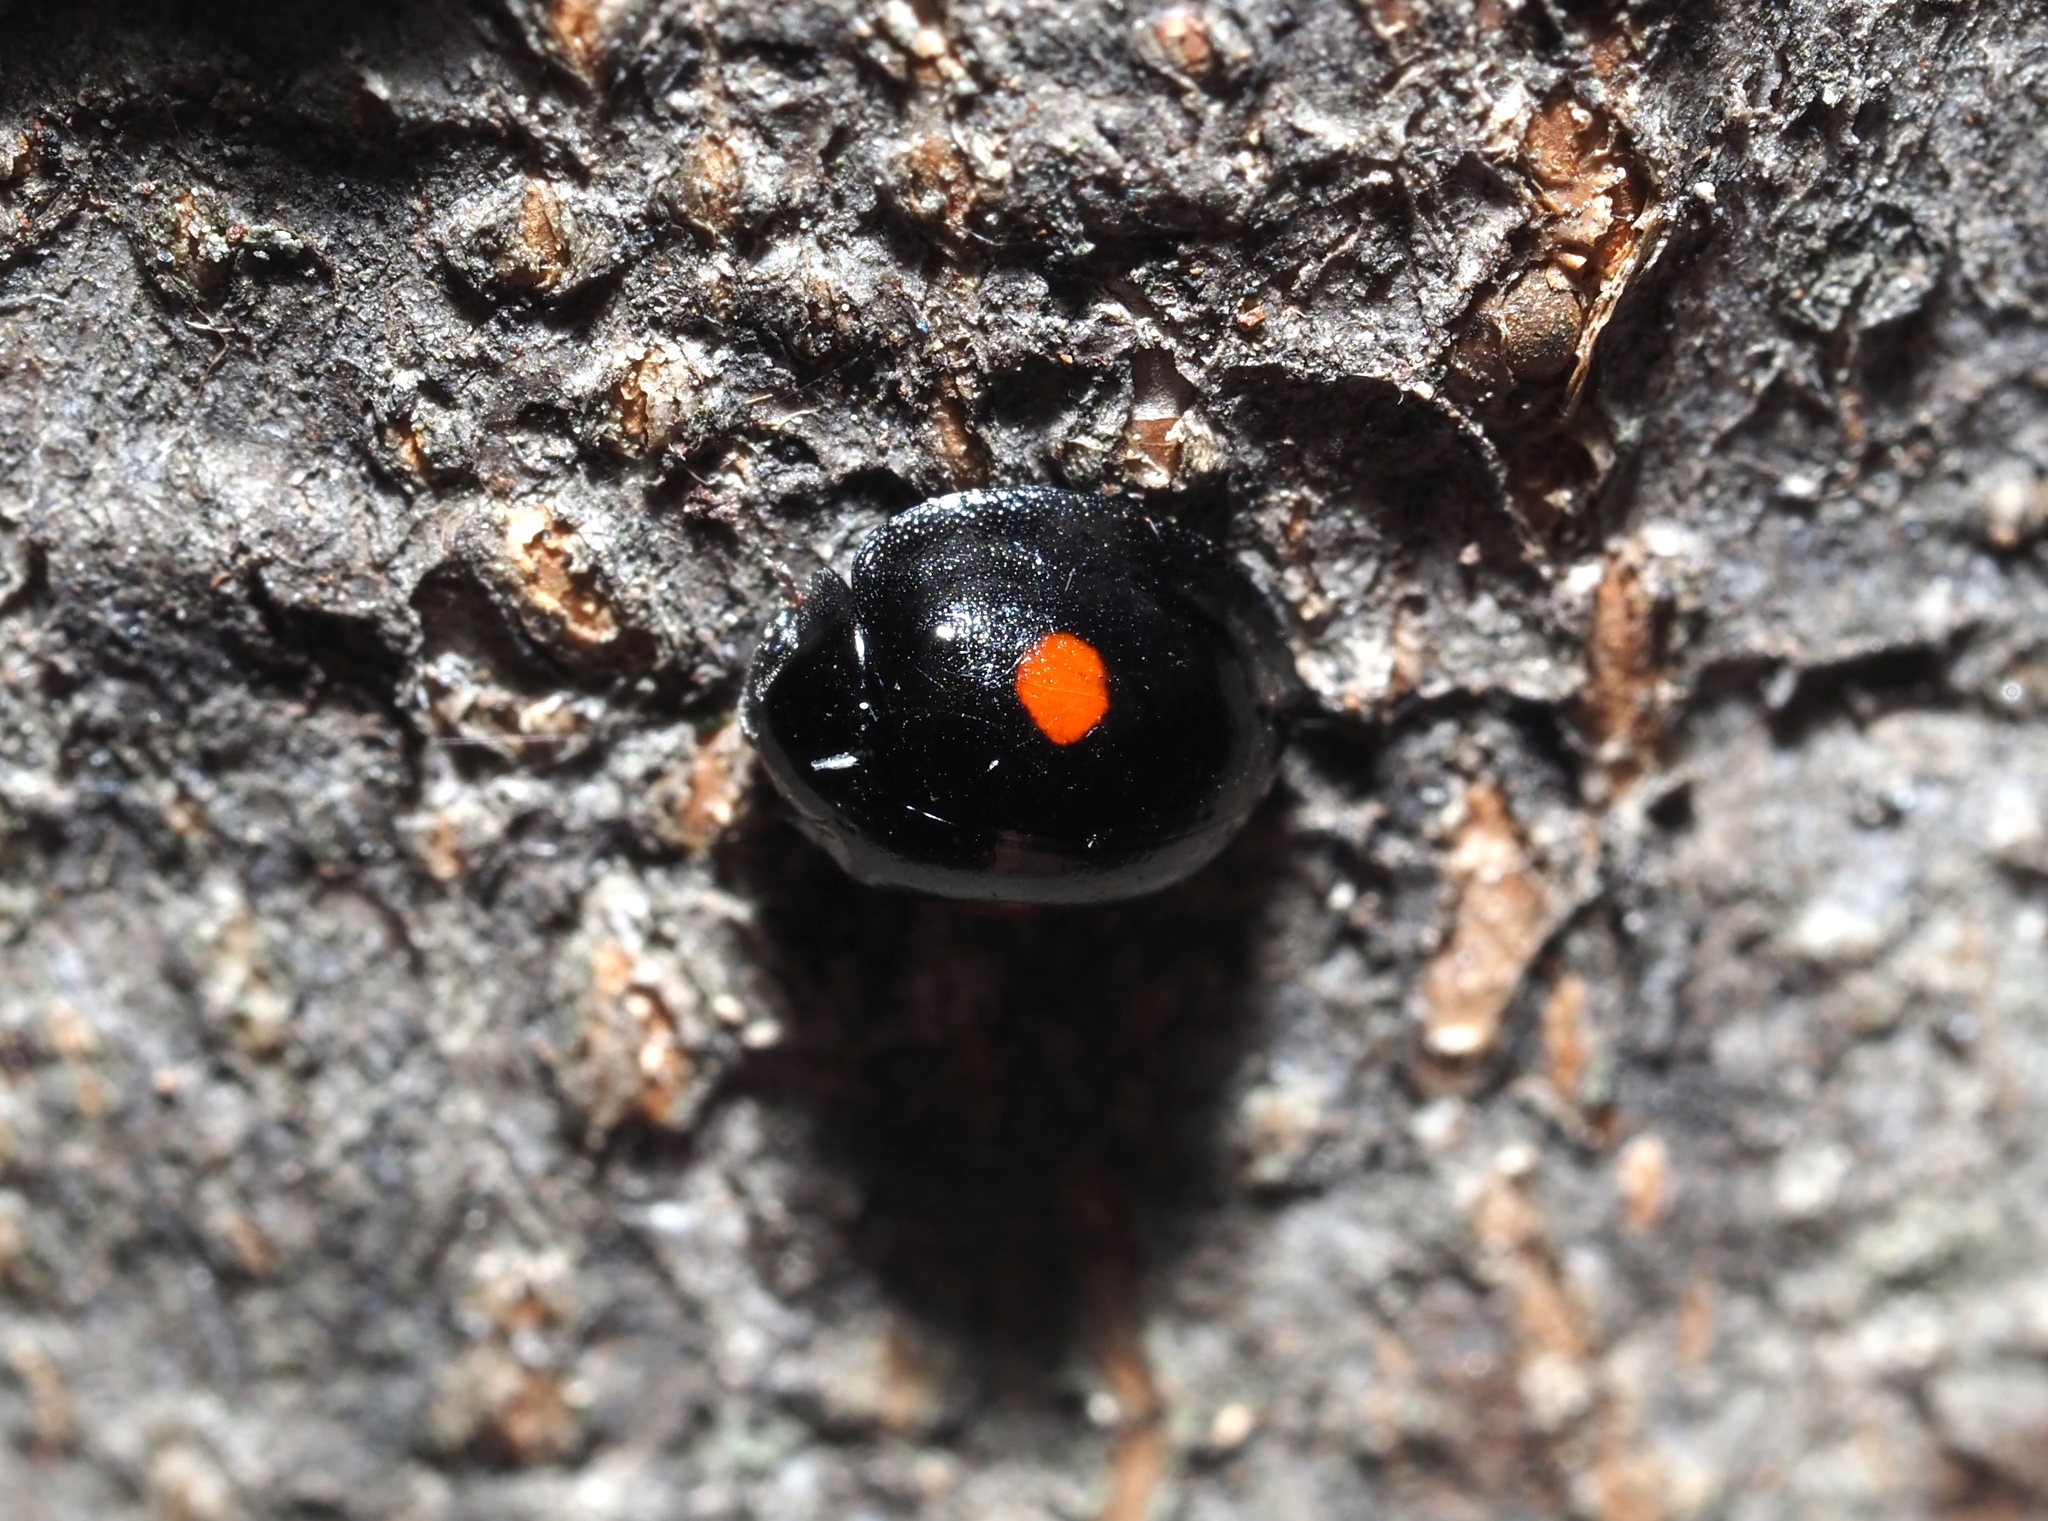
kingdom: Animalia
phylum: Arthropoda
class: Insecta
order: Coleoptera
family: Coccinellidae
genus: Chilocorus
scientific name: Chilocorus stigma
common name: Twicestabbed lady beetle
